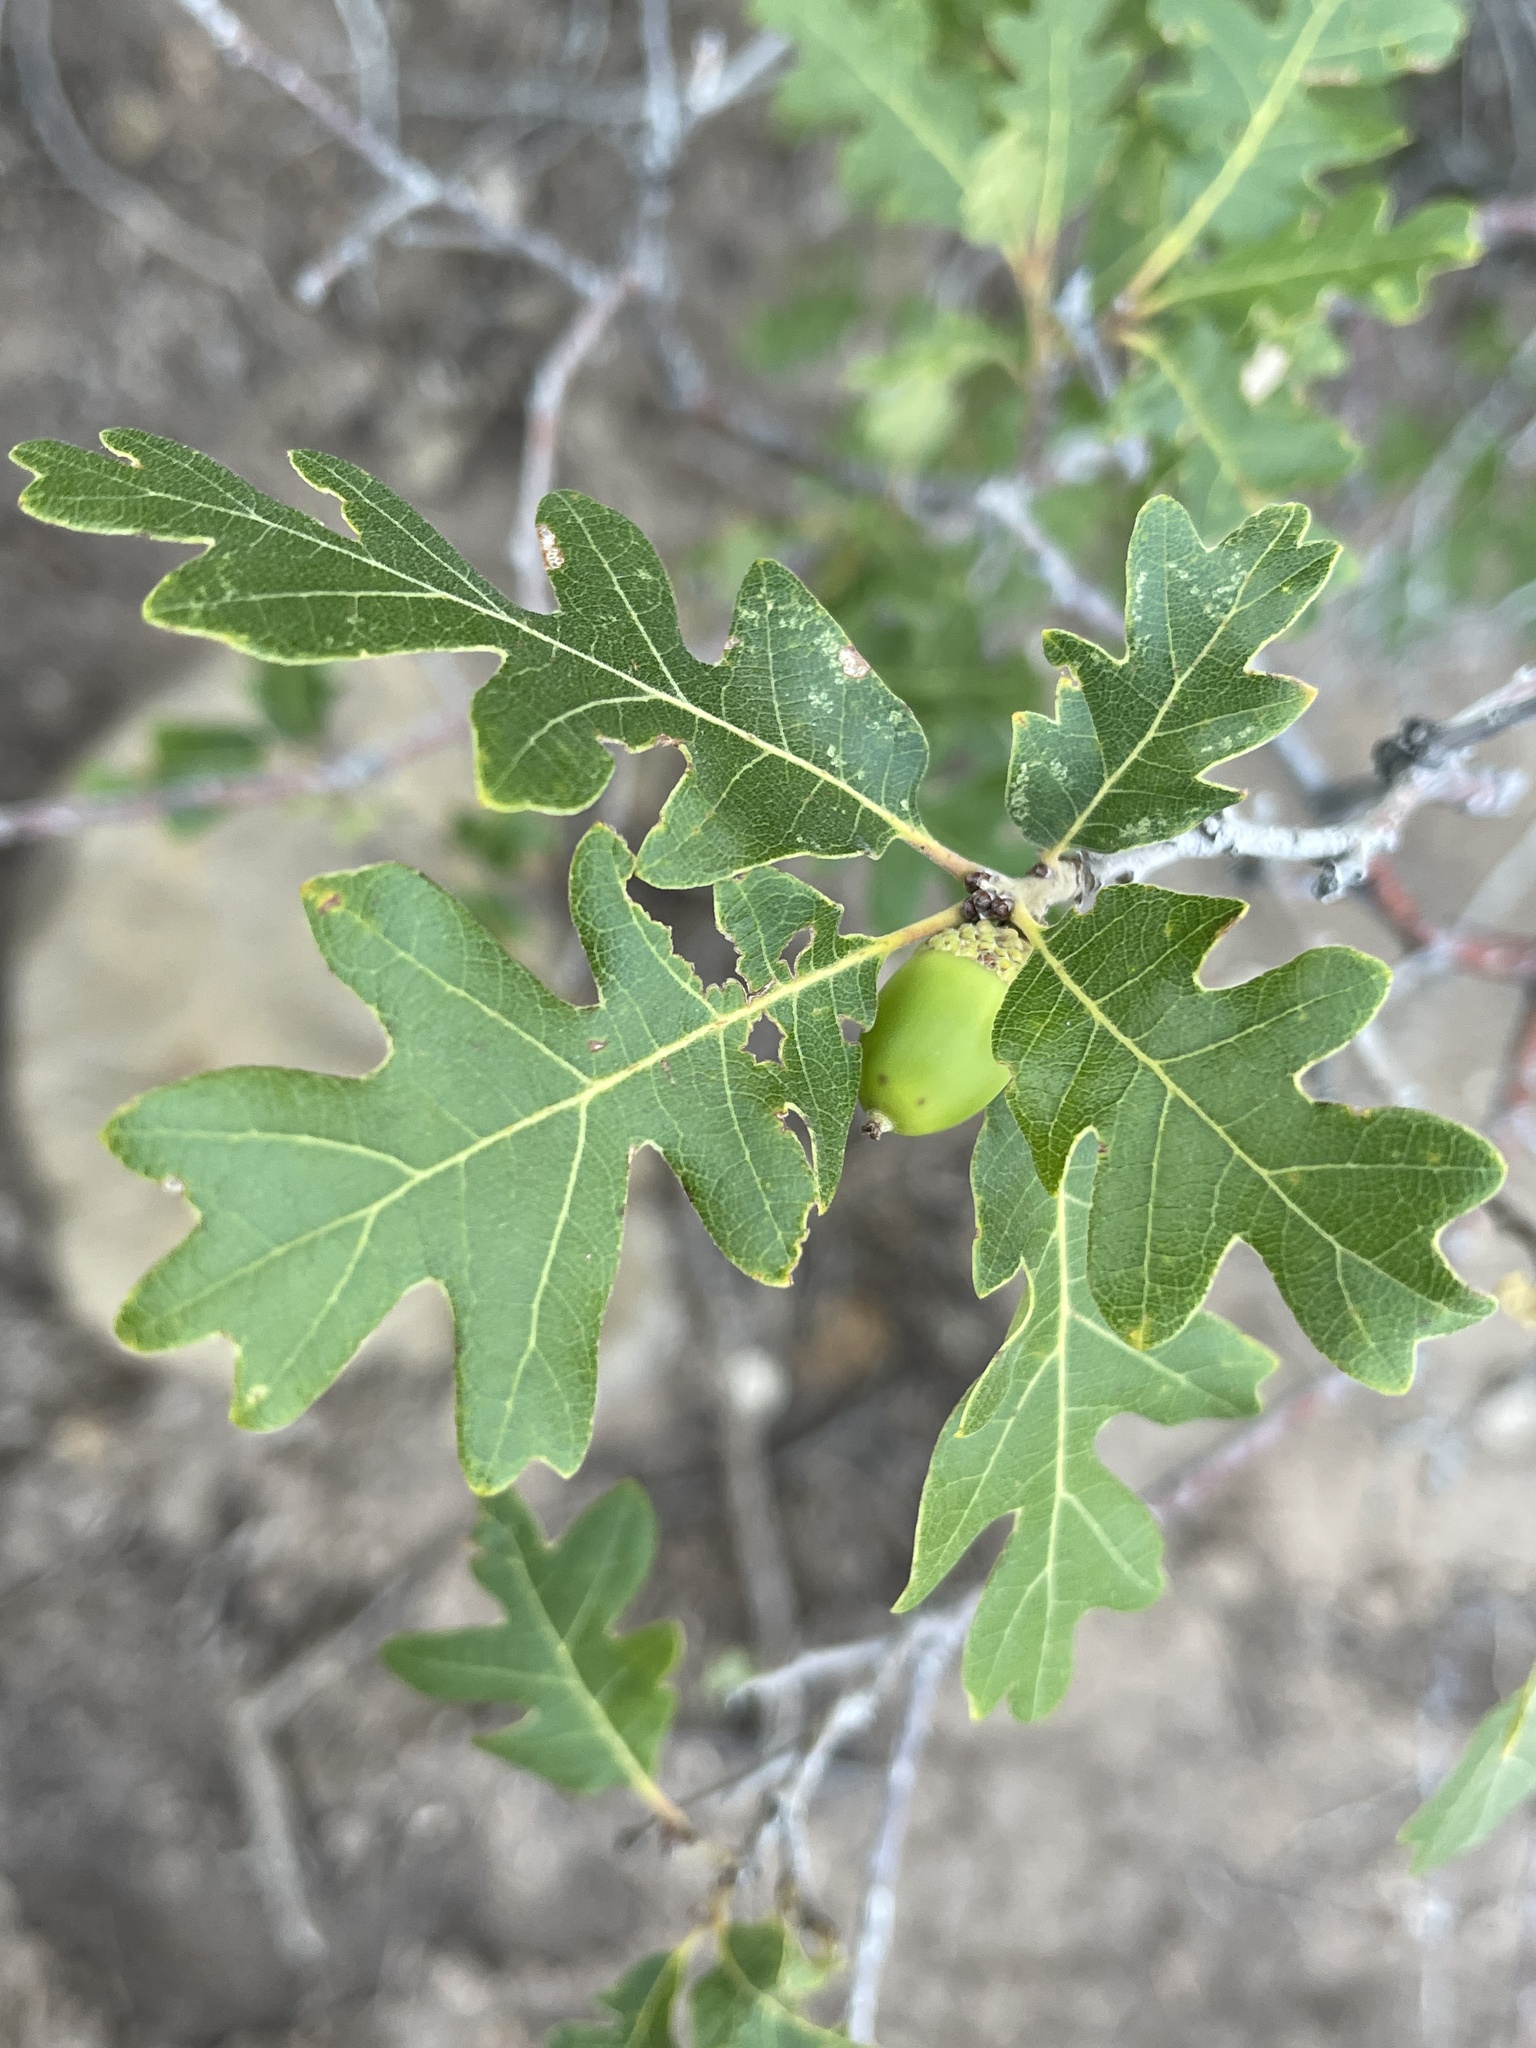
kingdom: Plantae
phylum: Tracheophyta
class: Magnoliopsida
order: Fagales
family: Fagaceae
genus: Quercus
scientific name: Quercus gambelii
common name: Gambel oak
